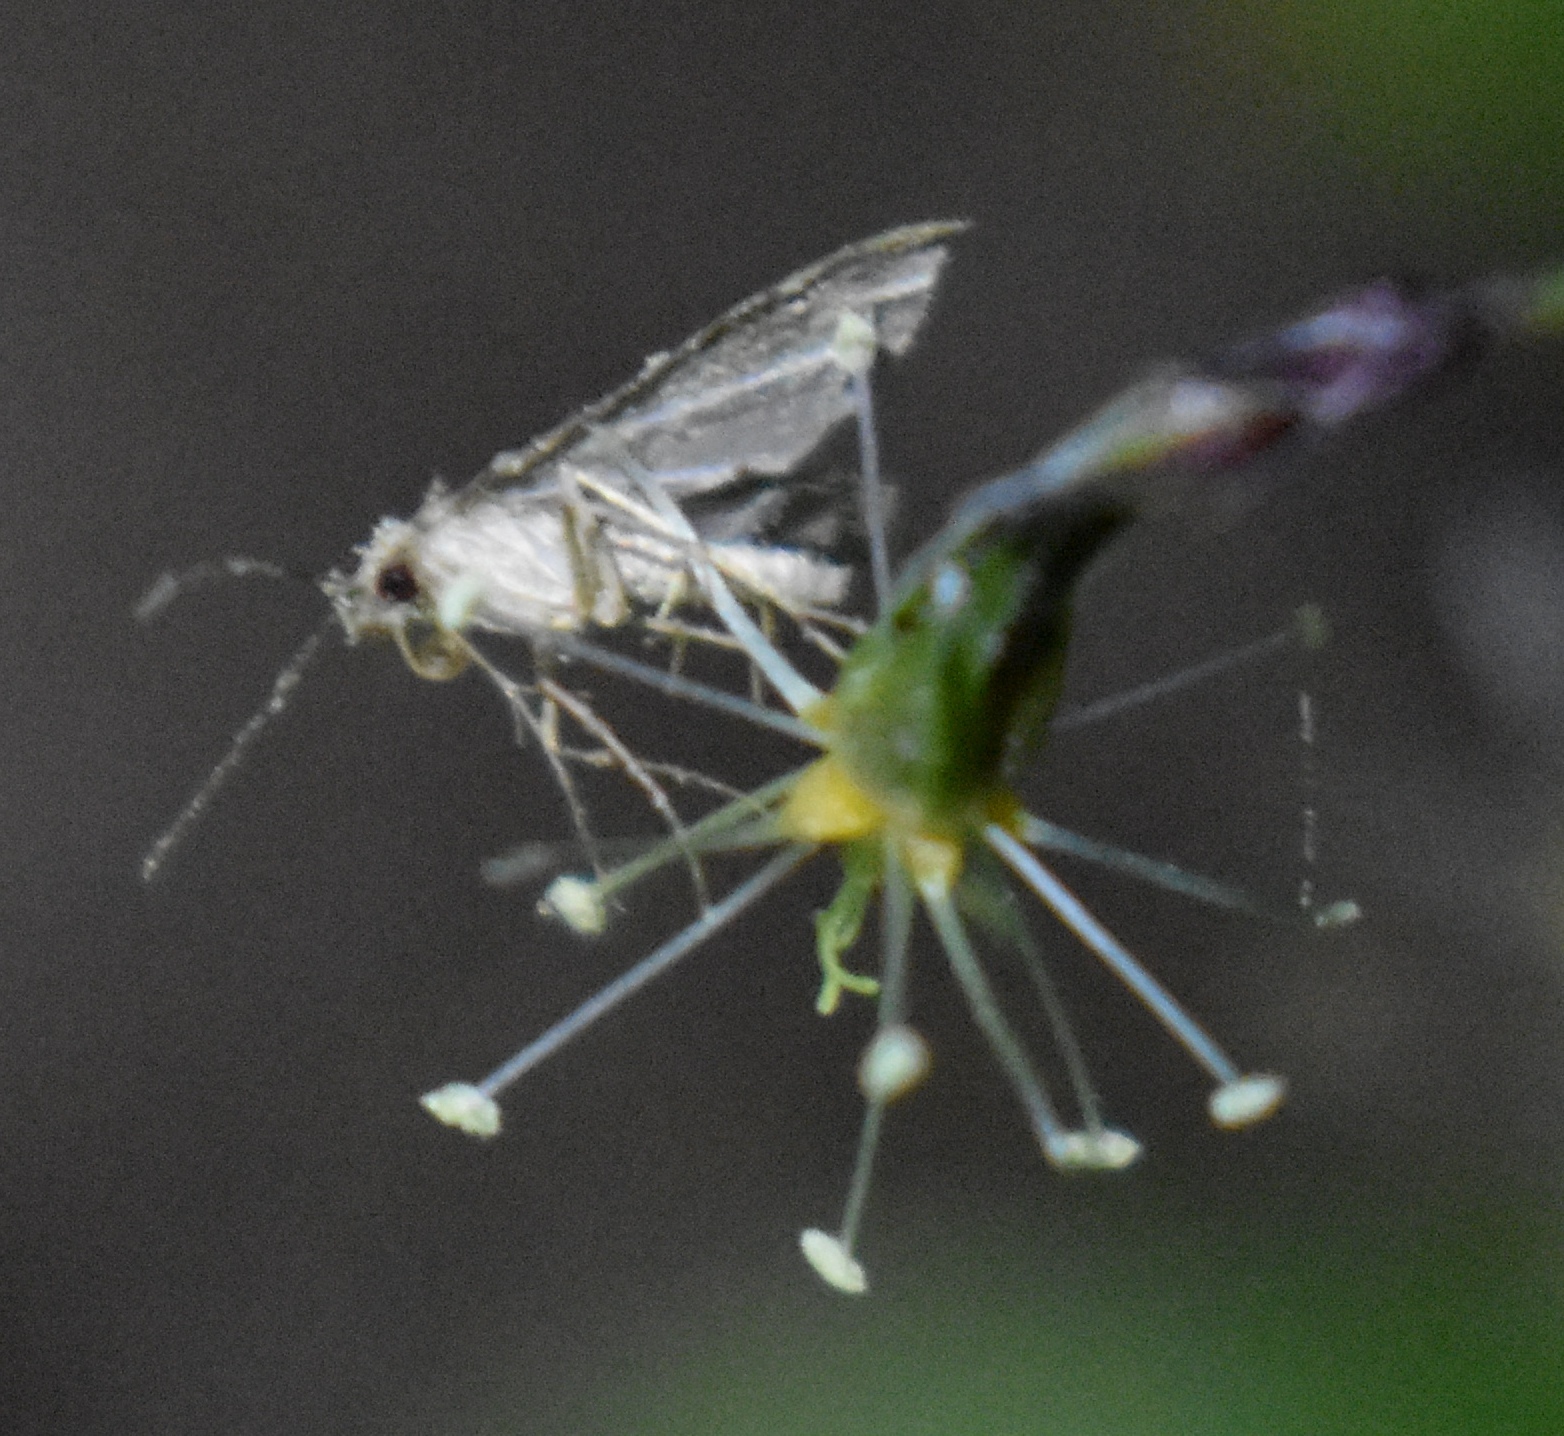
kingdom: Animalia
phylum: Arthropoda
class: Insecta
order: Lepidoptera
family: Erebidae
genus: Pseudoschrankia
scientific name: Pseudoschrankia brevipalpis
